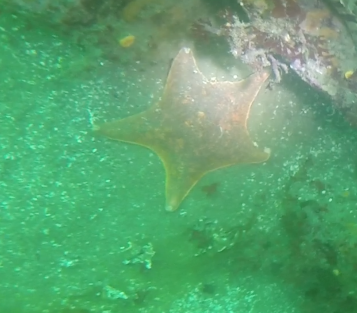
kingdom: Animalia
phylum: Echinodermata
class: Asteroidea
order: Valvatida
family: Asterinidae
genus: Patiria
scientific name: Patiria miniata
